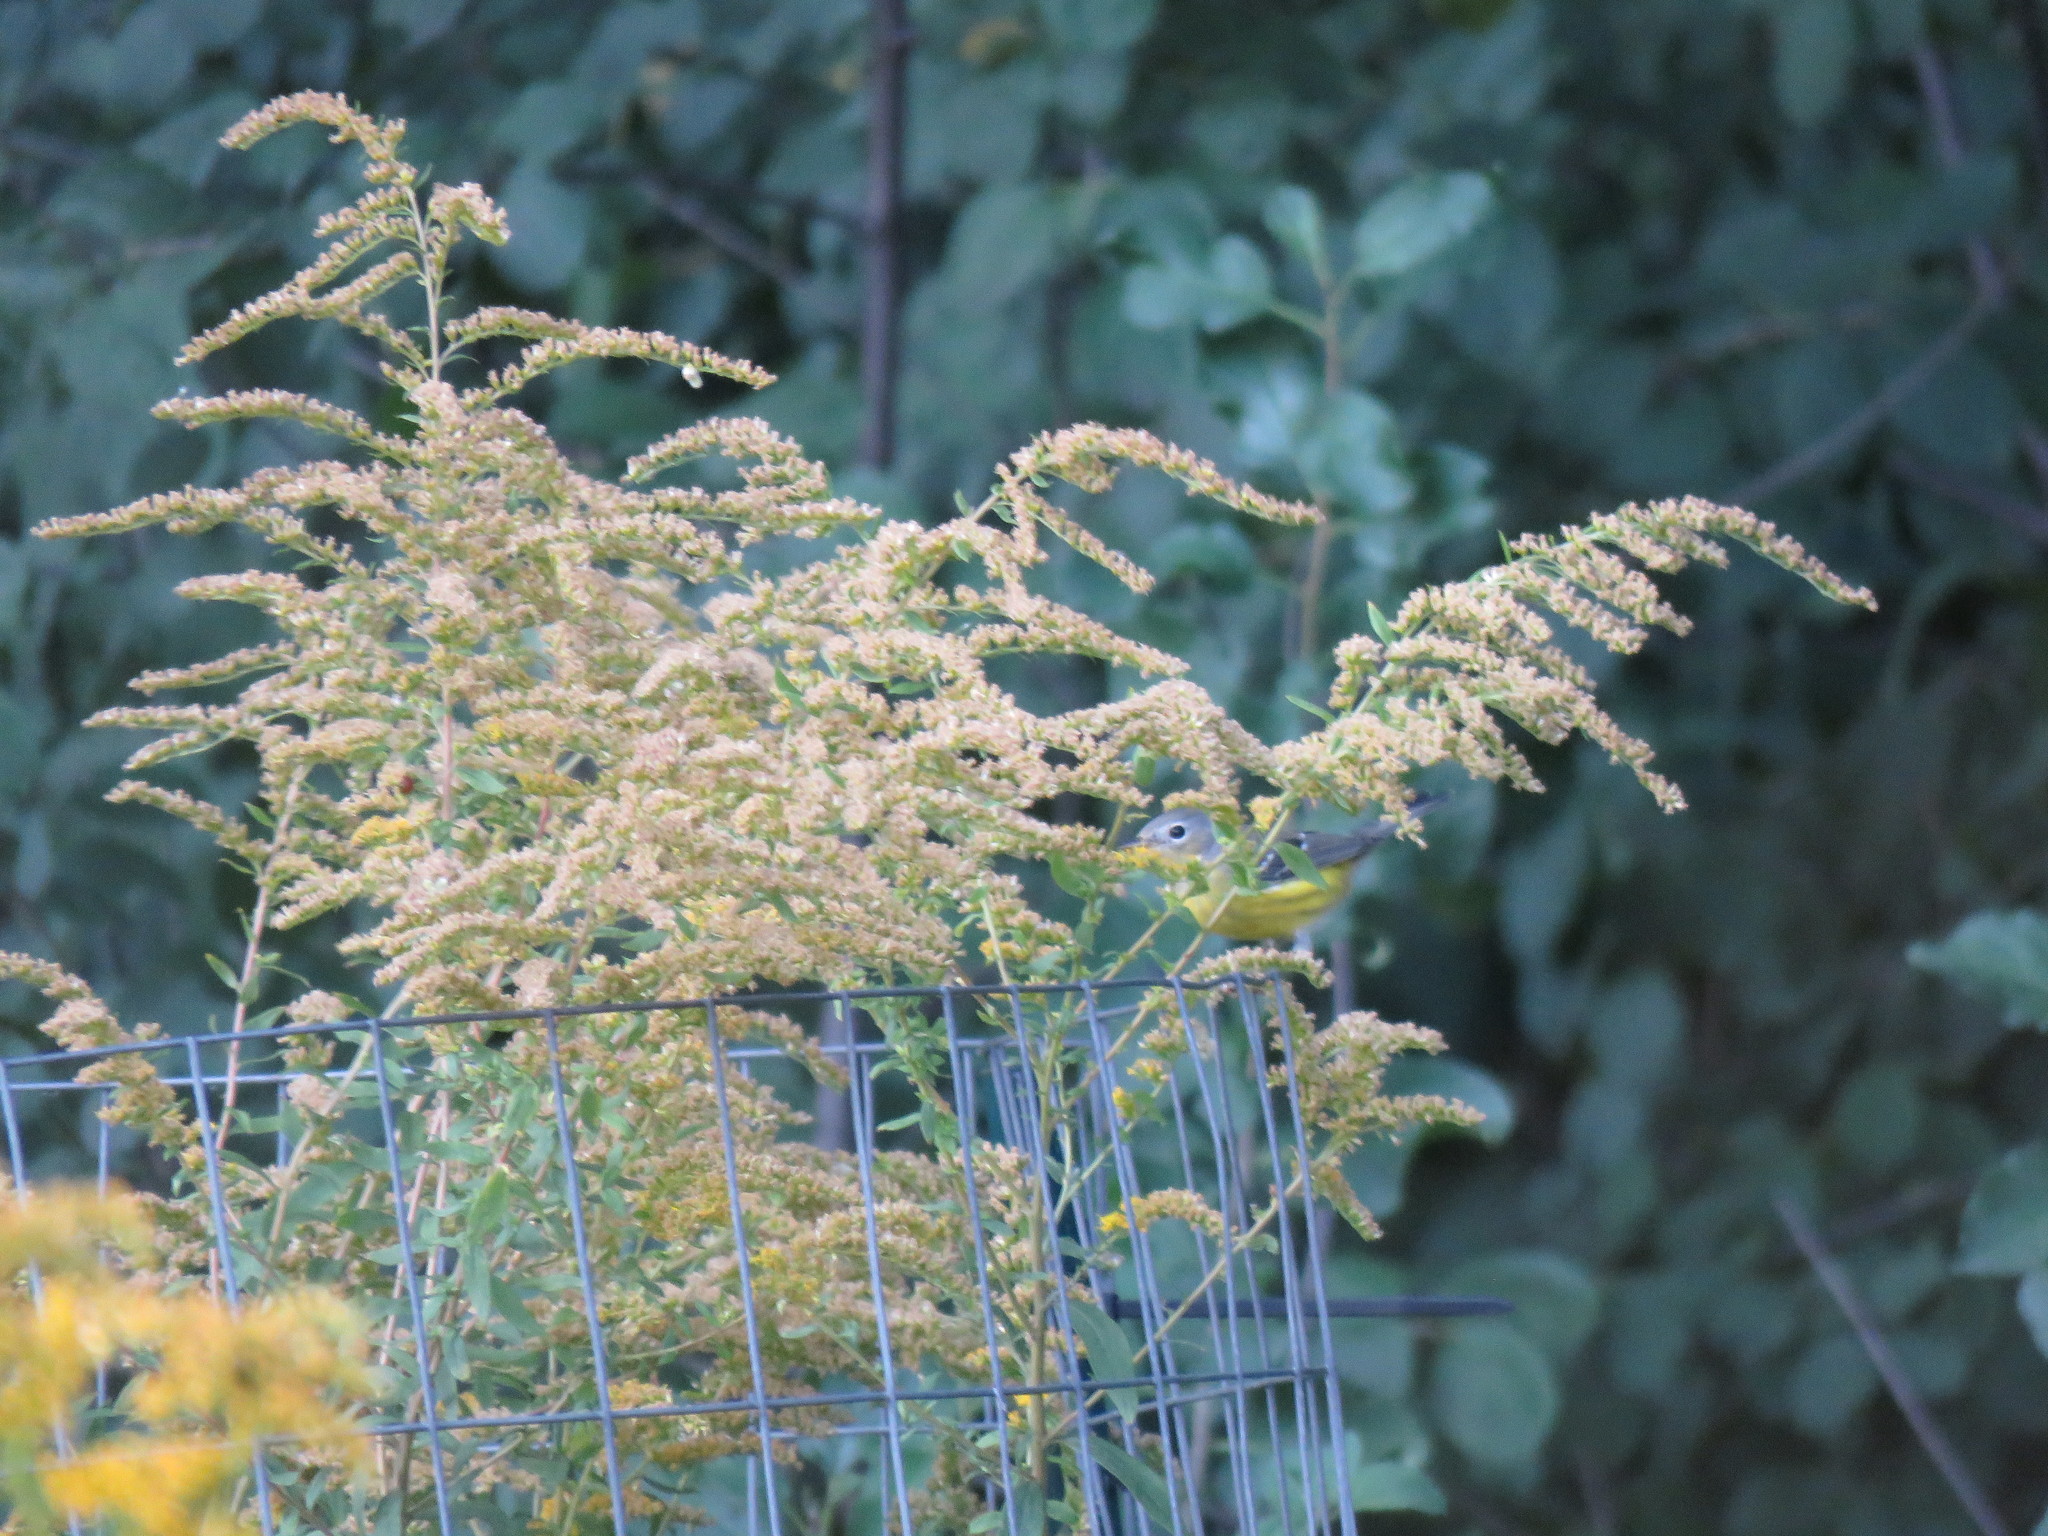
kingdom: Animalia
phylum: Chordata
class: Aves
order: Passeriformes
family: Parulidae
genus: Setophaga
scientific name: Setophaga magnolia
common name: Magnolia warbler
